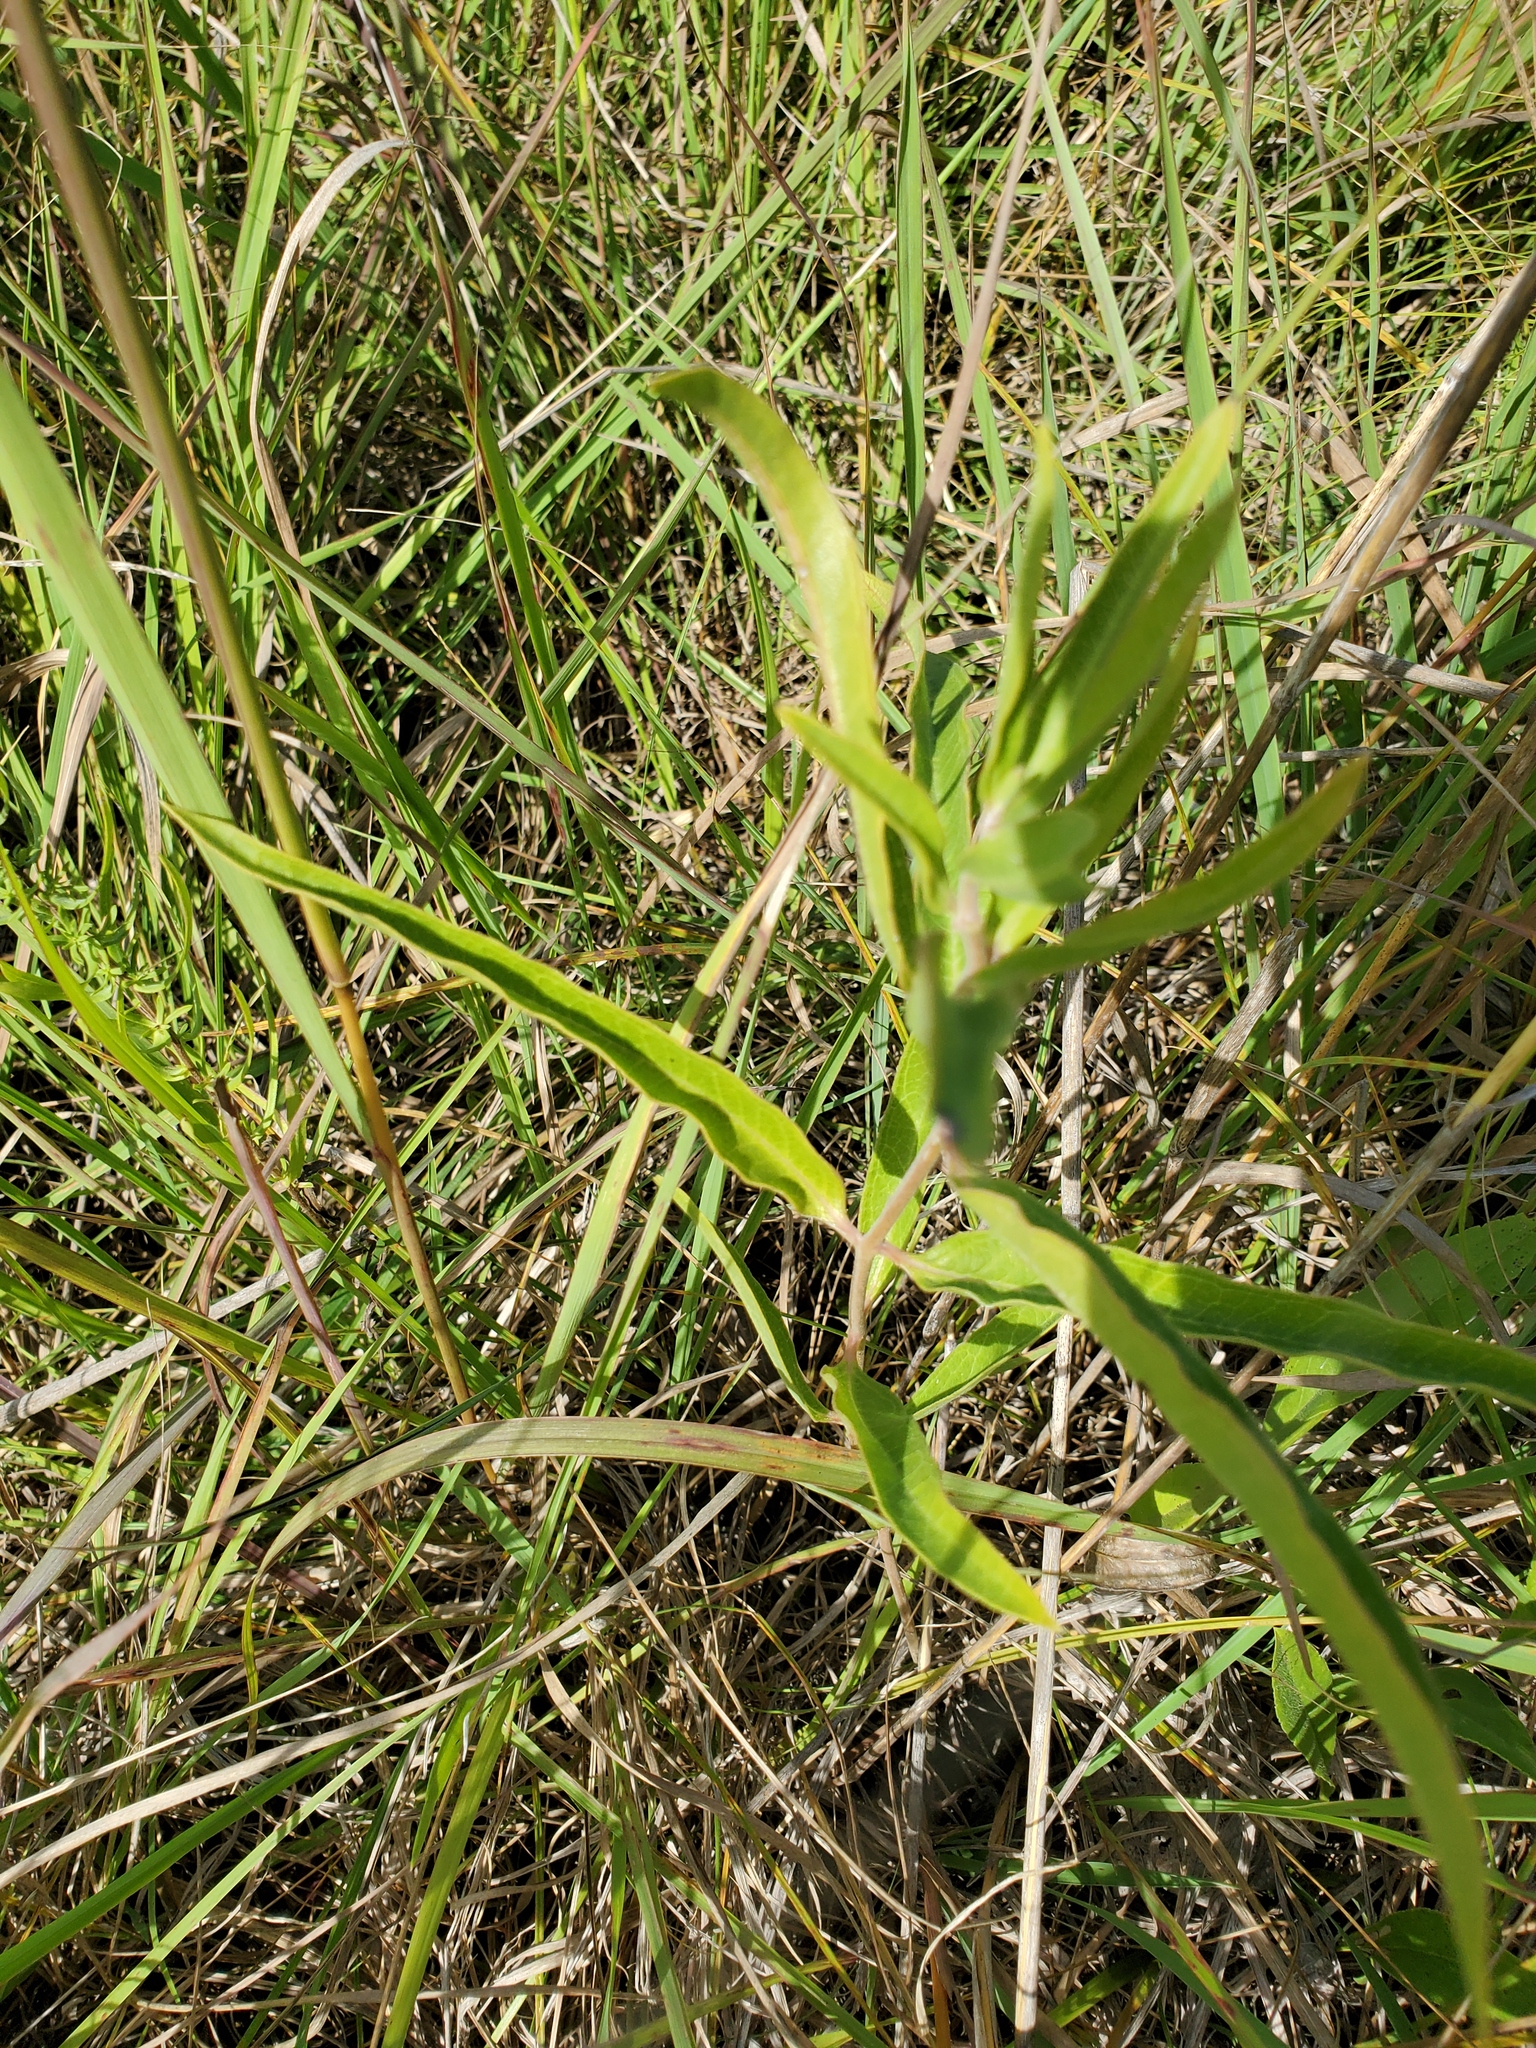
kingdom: Plantae
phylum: Tracheophyta
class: Magnoliopsida
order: Gentianales
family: Apocynaceae
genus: Asclepias
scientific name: Asclepias viridiflora
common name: Green comet milkweed
